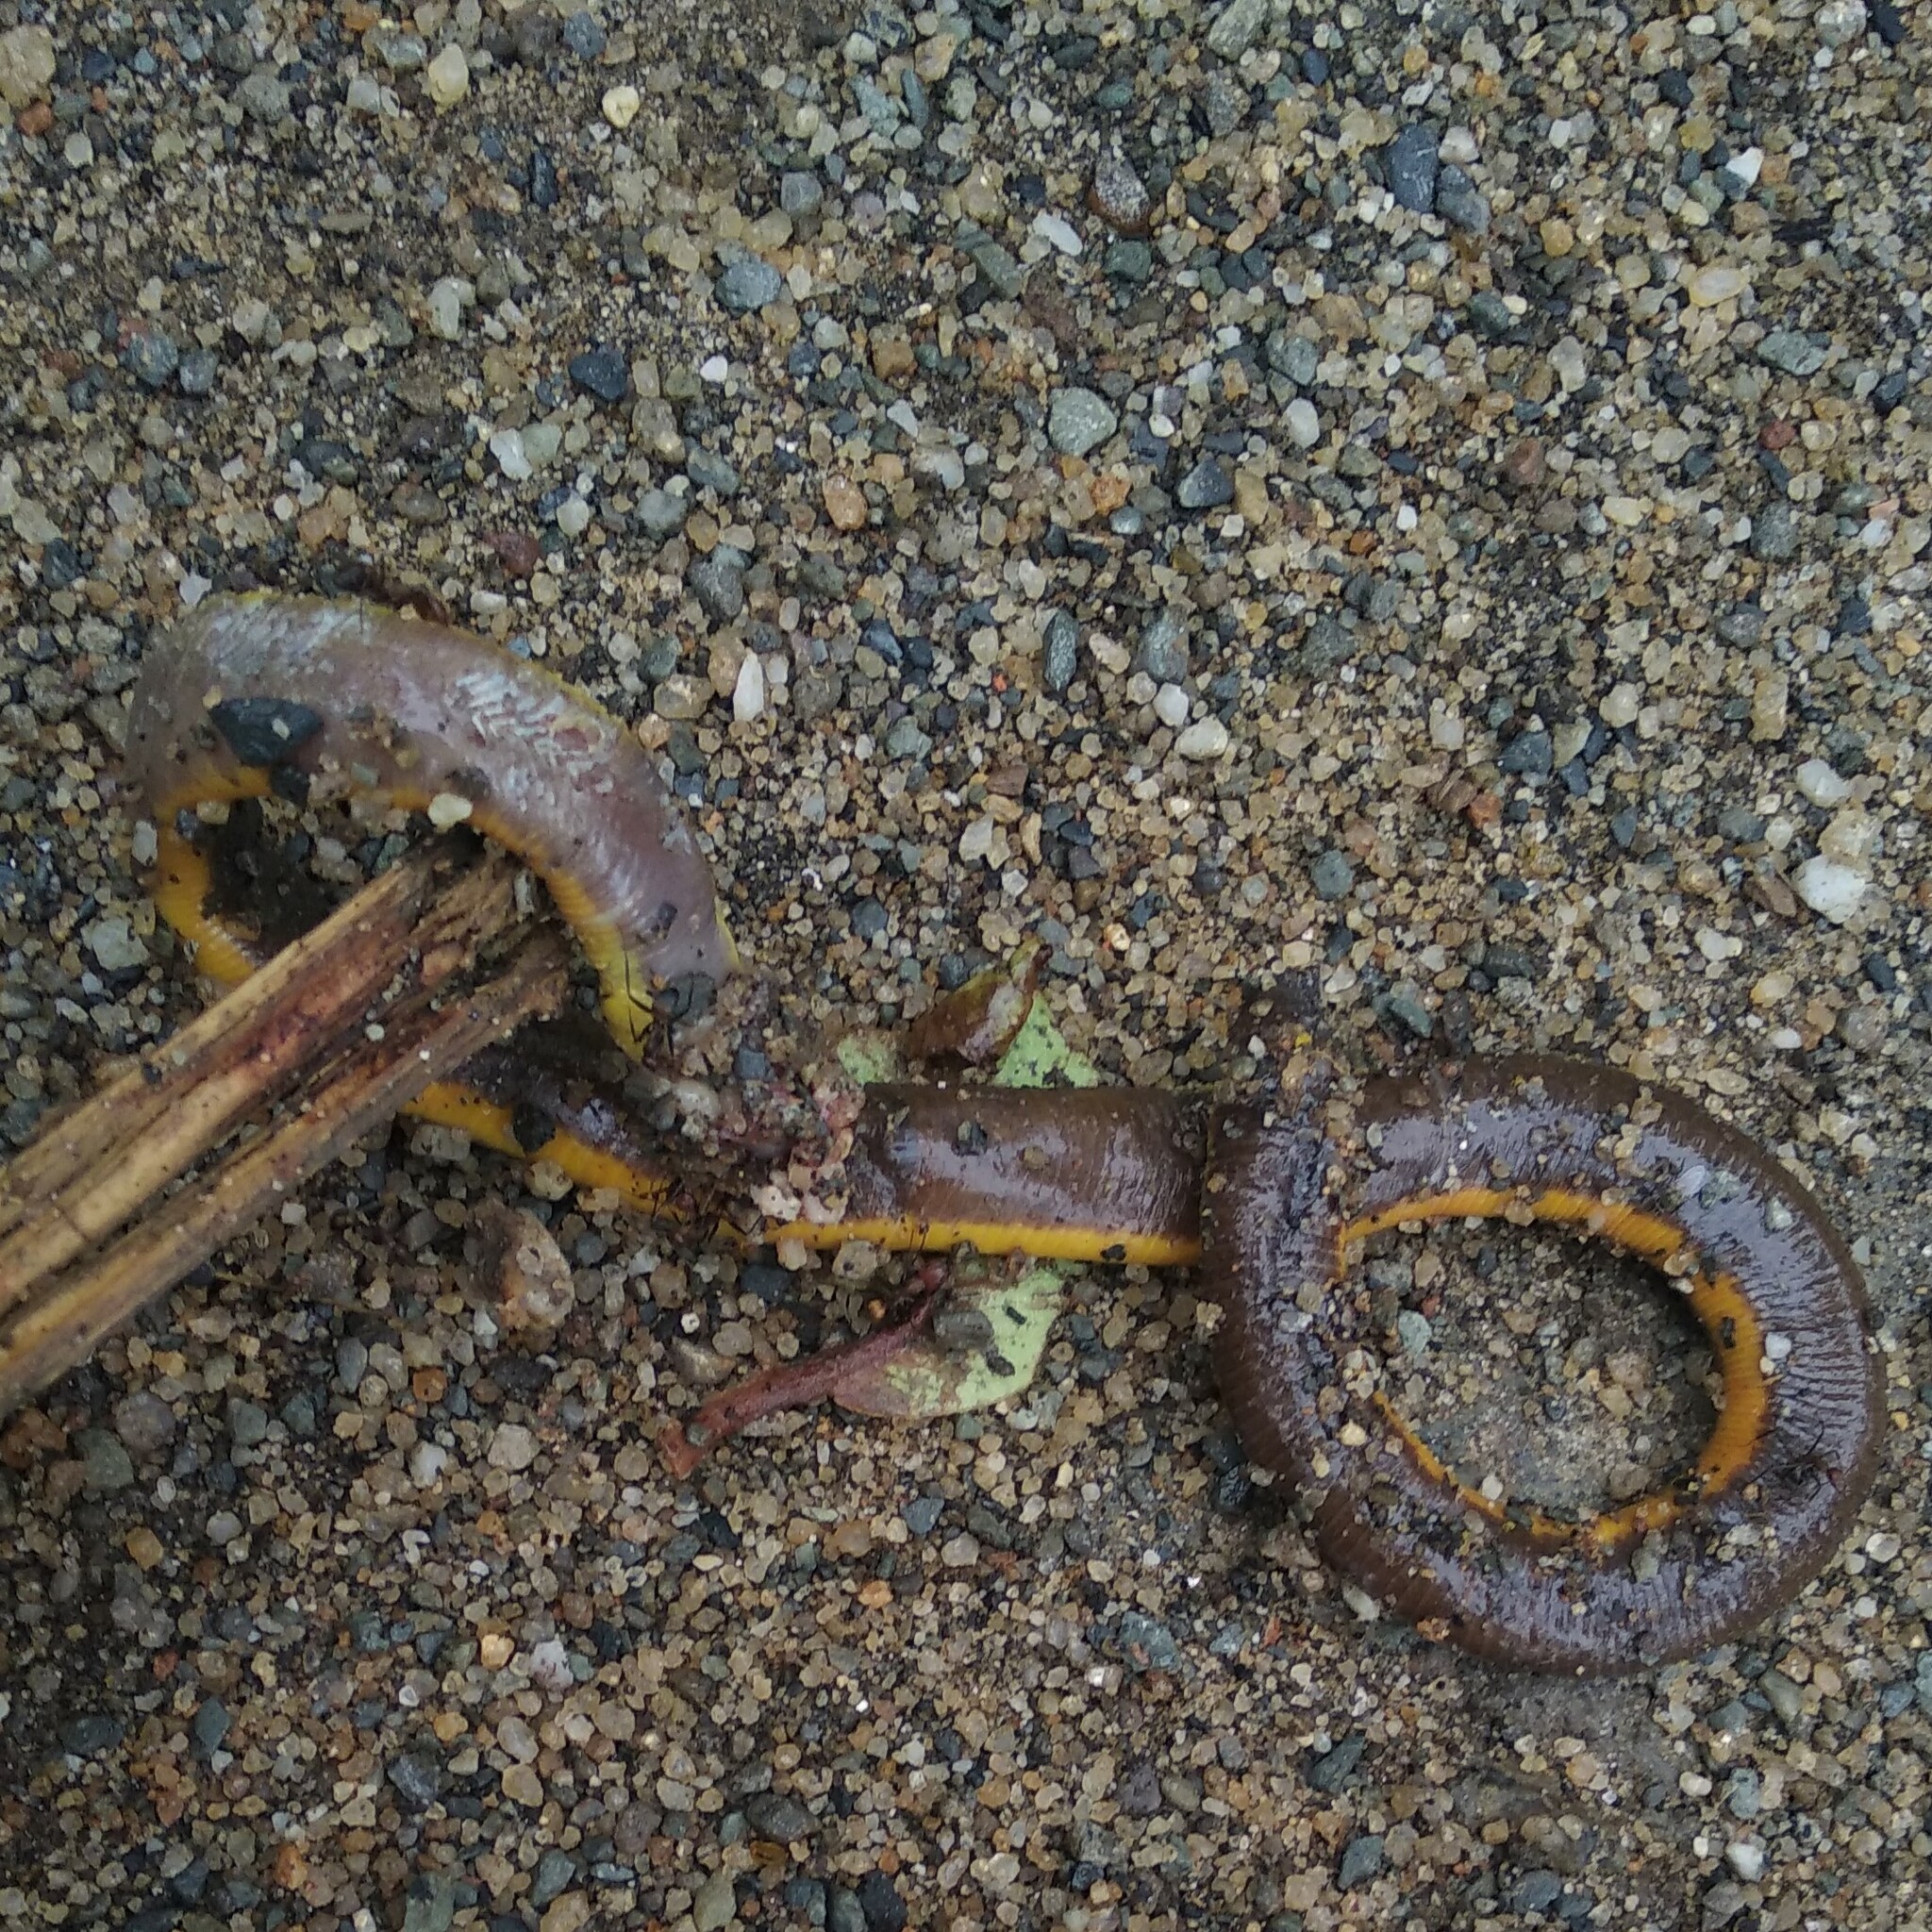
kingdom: Animalia
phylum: Chordata
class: Amphibia
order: Gymnophiona
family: Ichthyophiidae
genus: Ichthyophis
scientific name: Ichthyophis garoensis
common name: Garo hills caecilian
